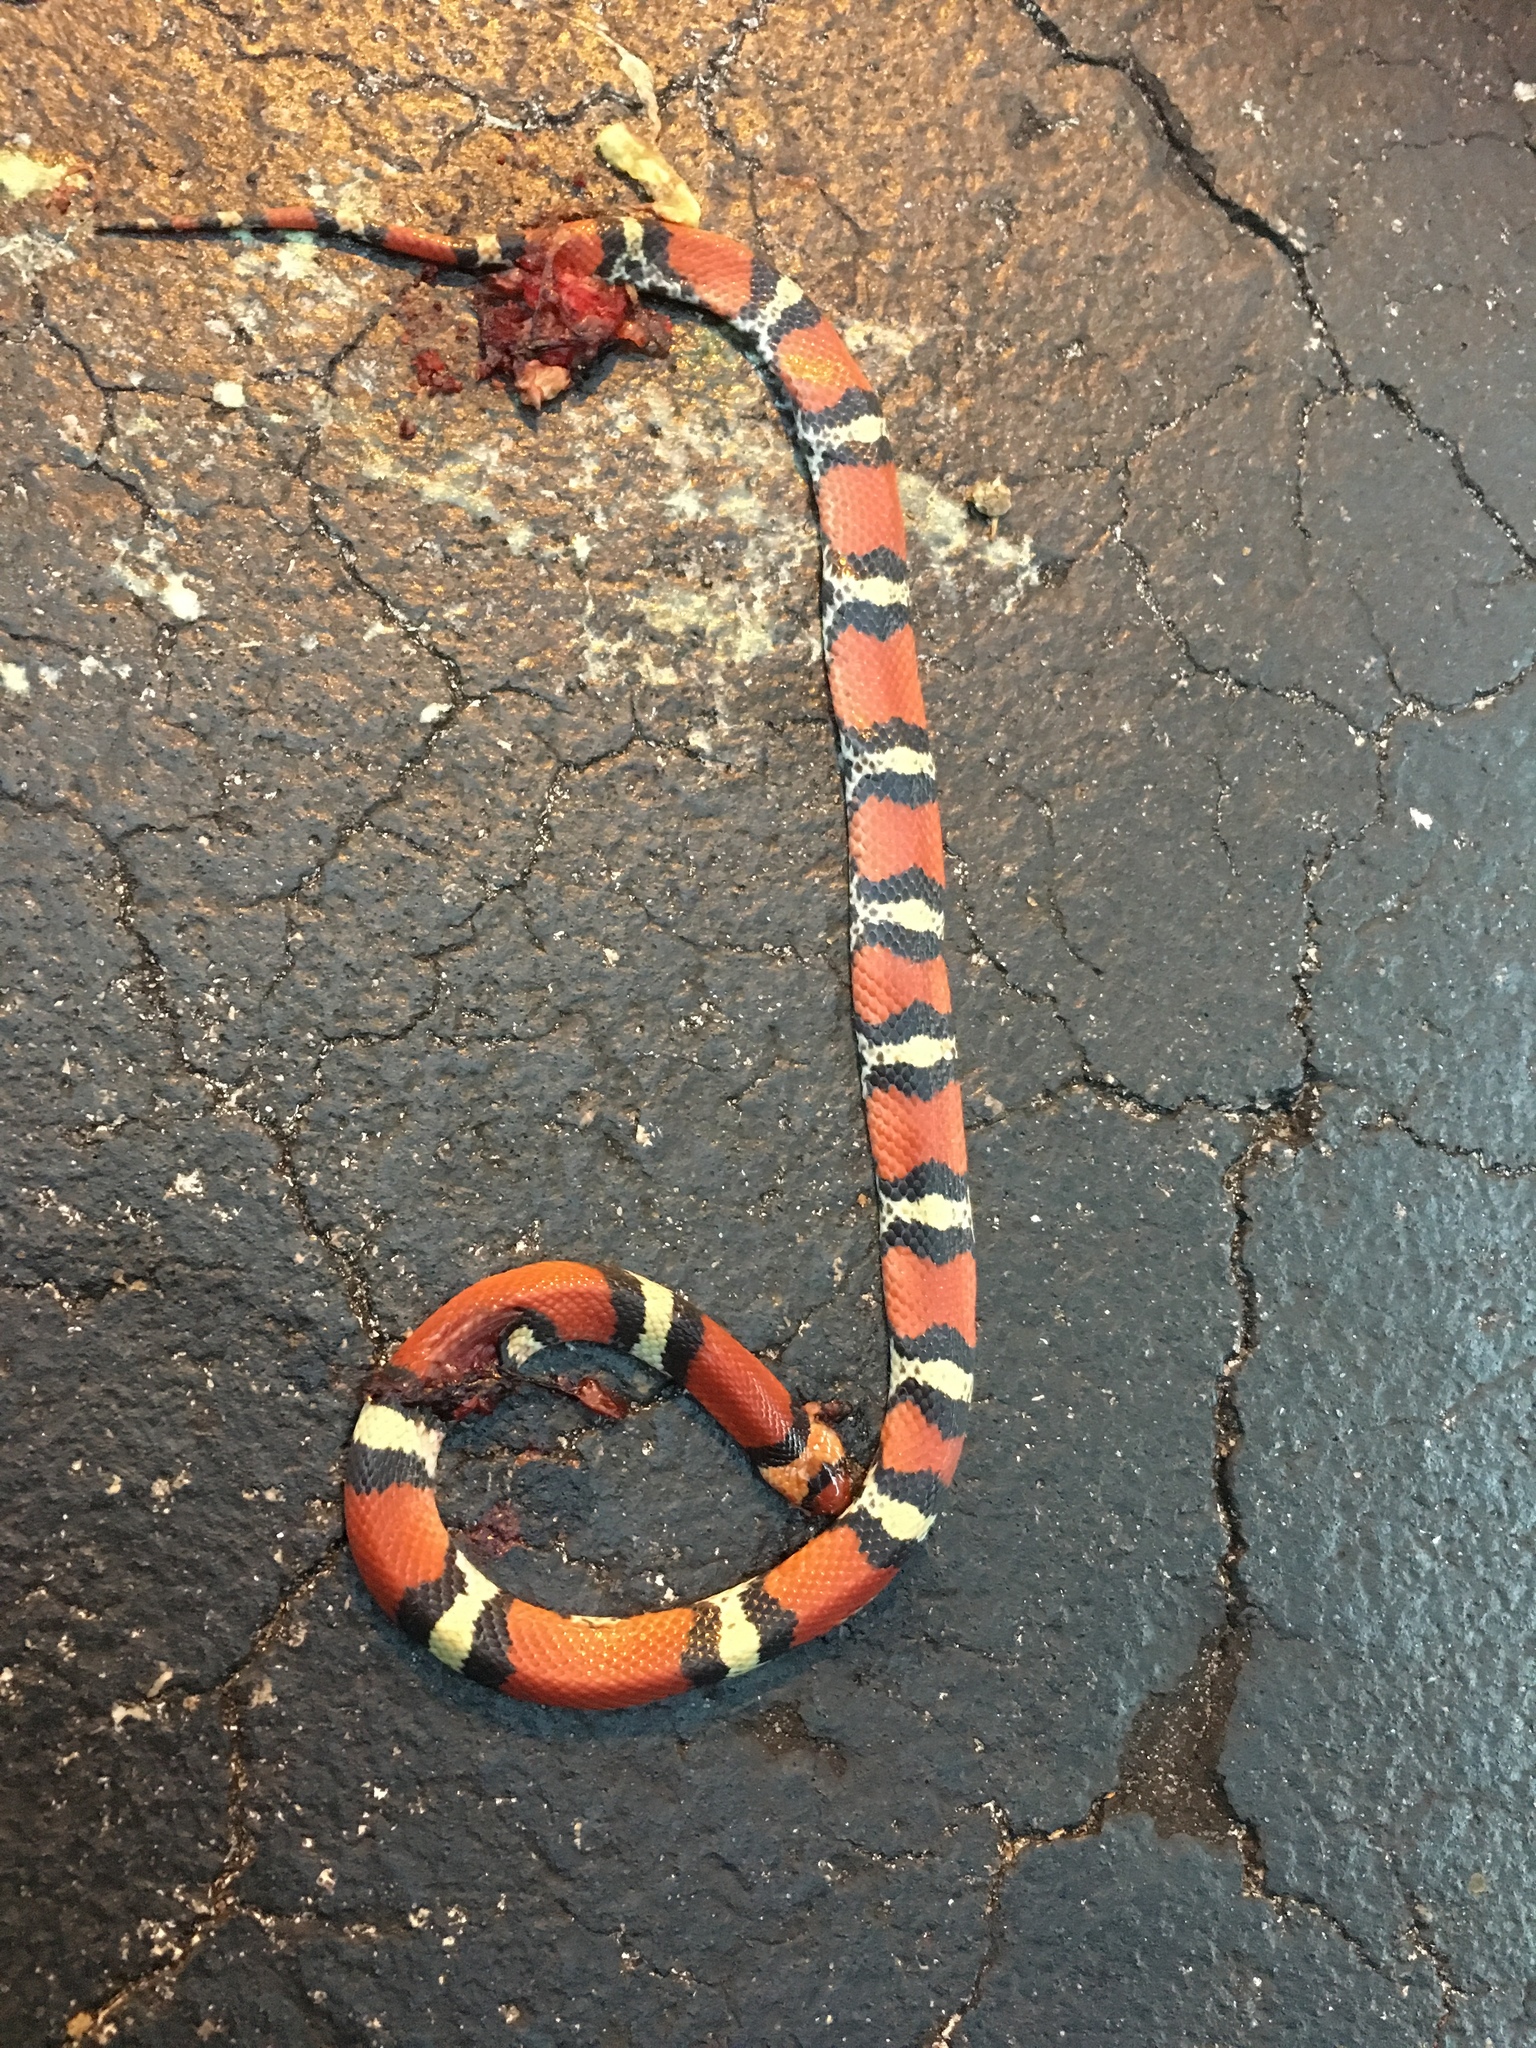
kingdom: Animalia
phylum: Chordata
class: Squamata
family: Colubridae
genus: Cemophora
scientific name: Cemophora coccinea
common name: Scarlet snake
